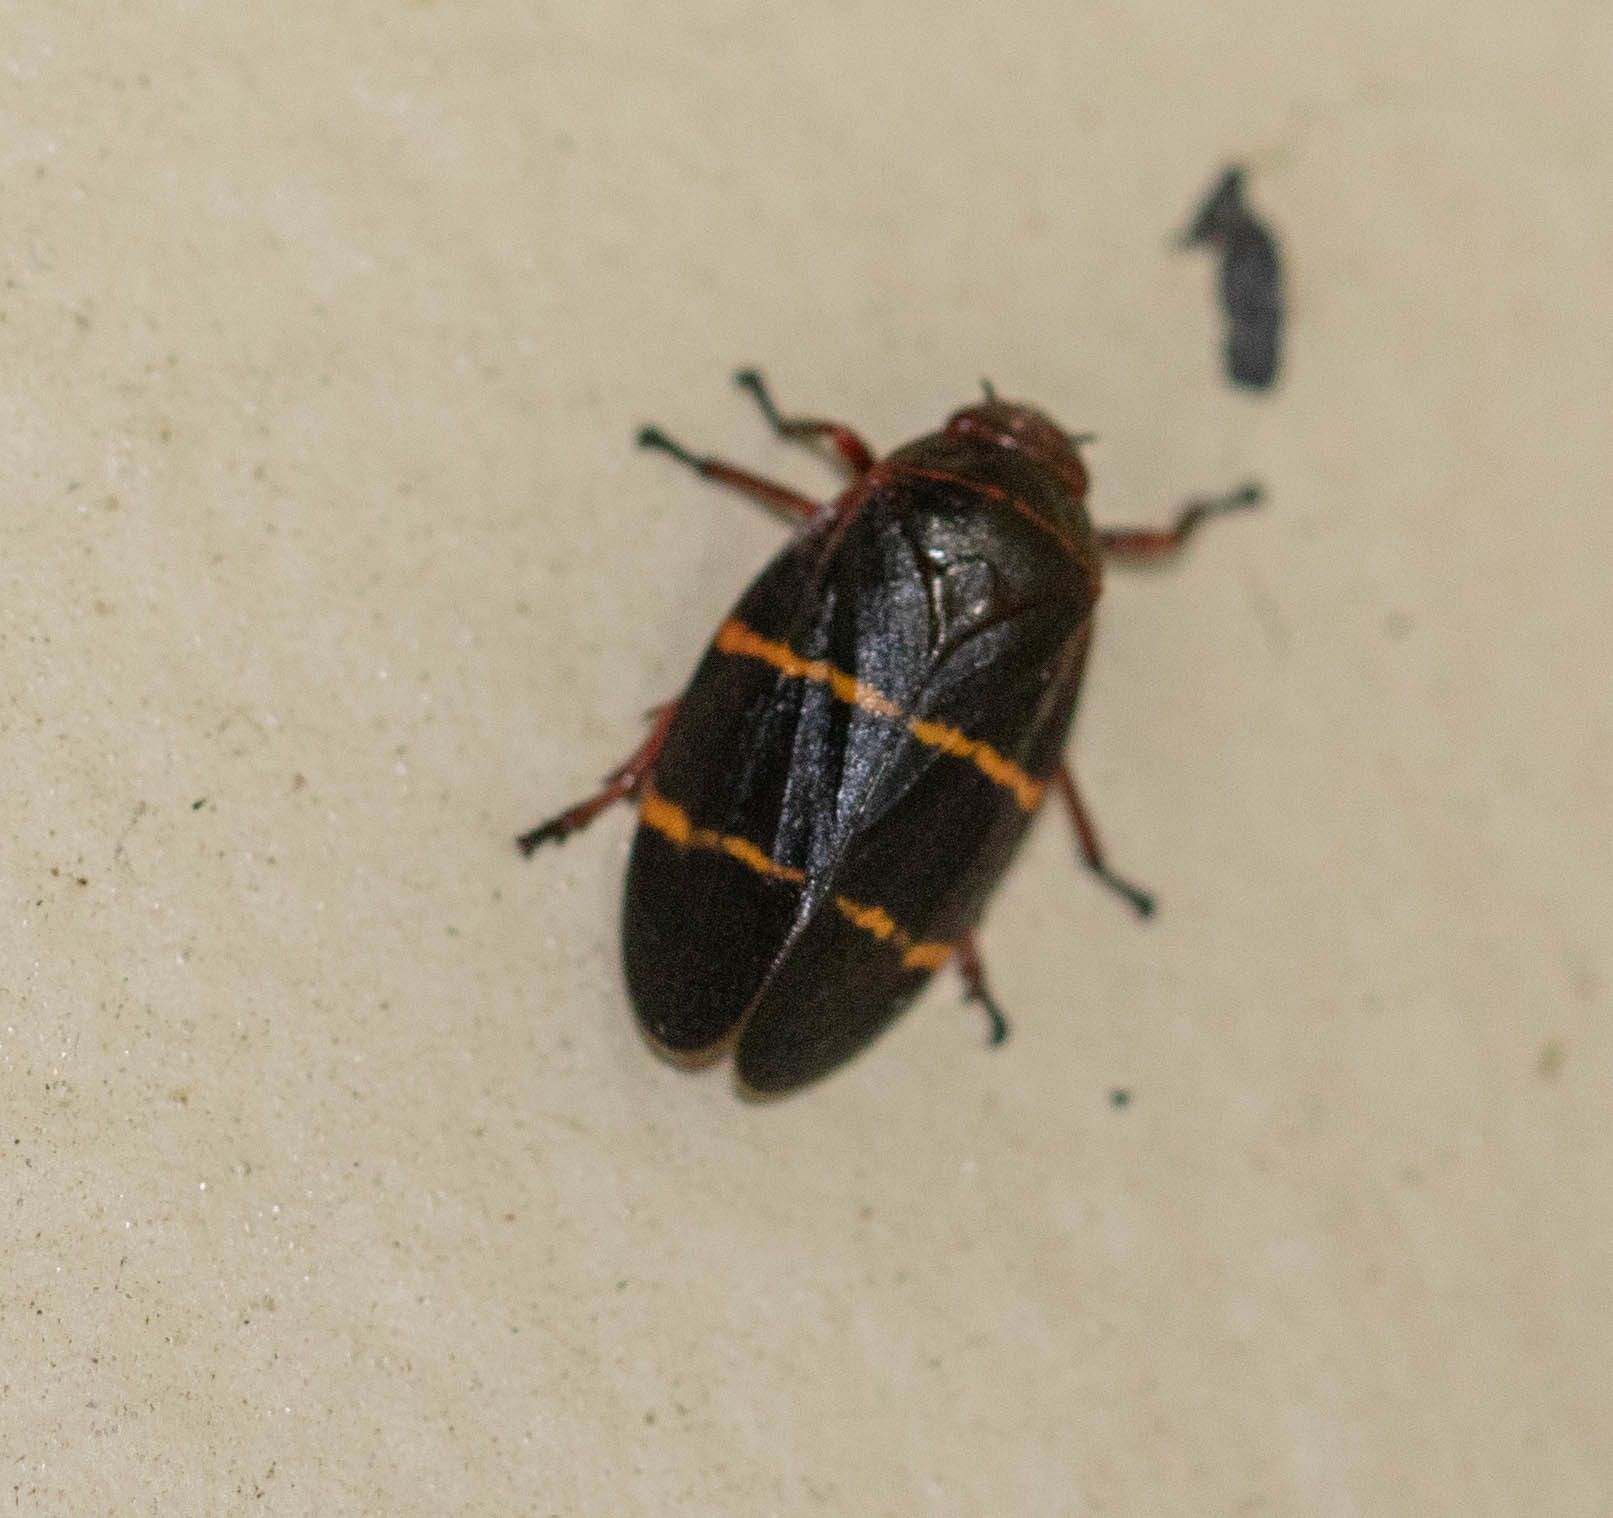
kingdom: Animalia
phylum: Arthropoda
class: Insecta
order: Hemiptera
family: Cercopidae
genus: Prosapia
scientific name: Prosapia bicincta
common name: Twolined spittlebug
